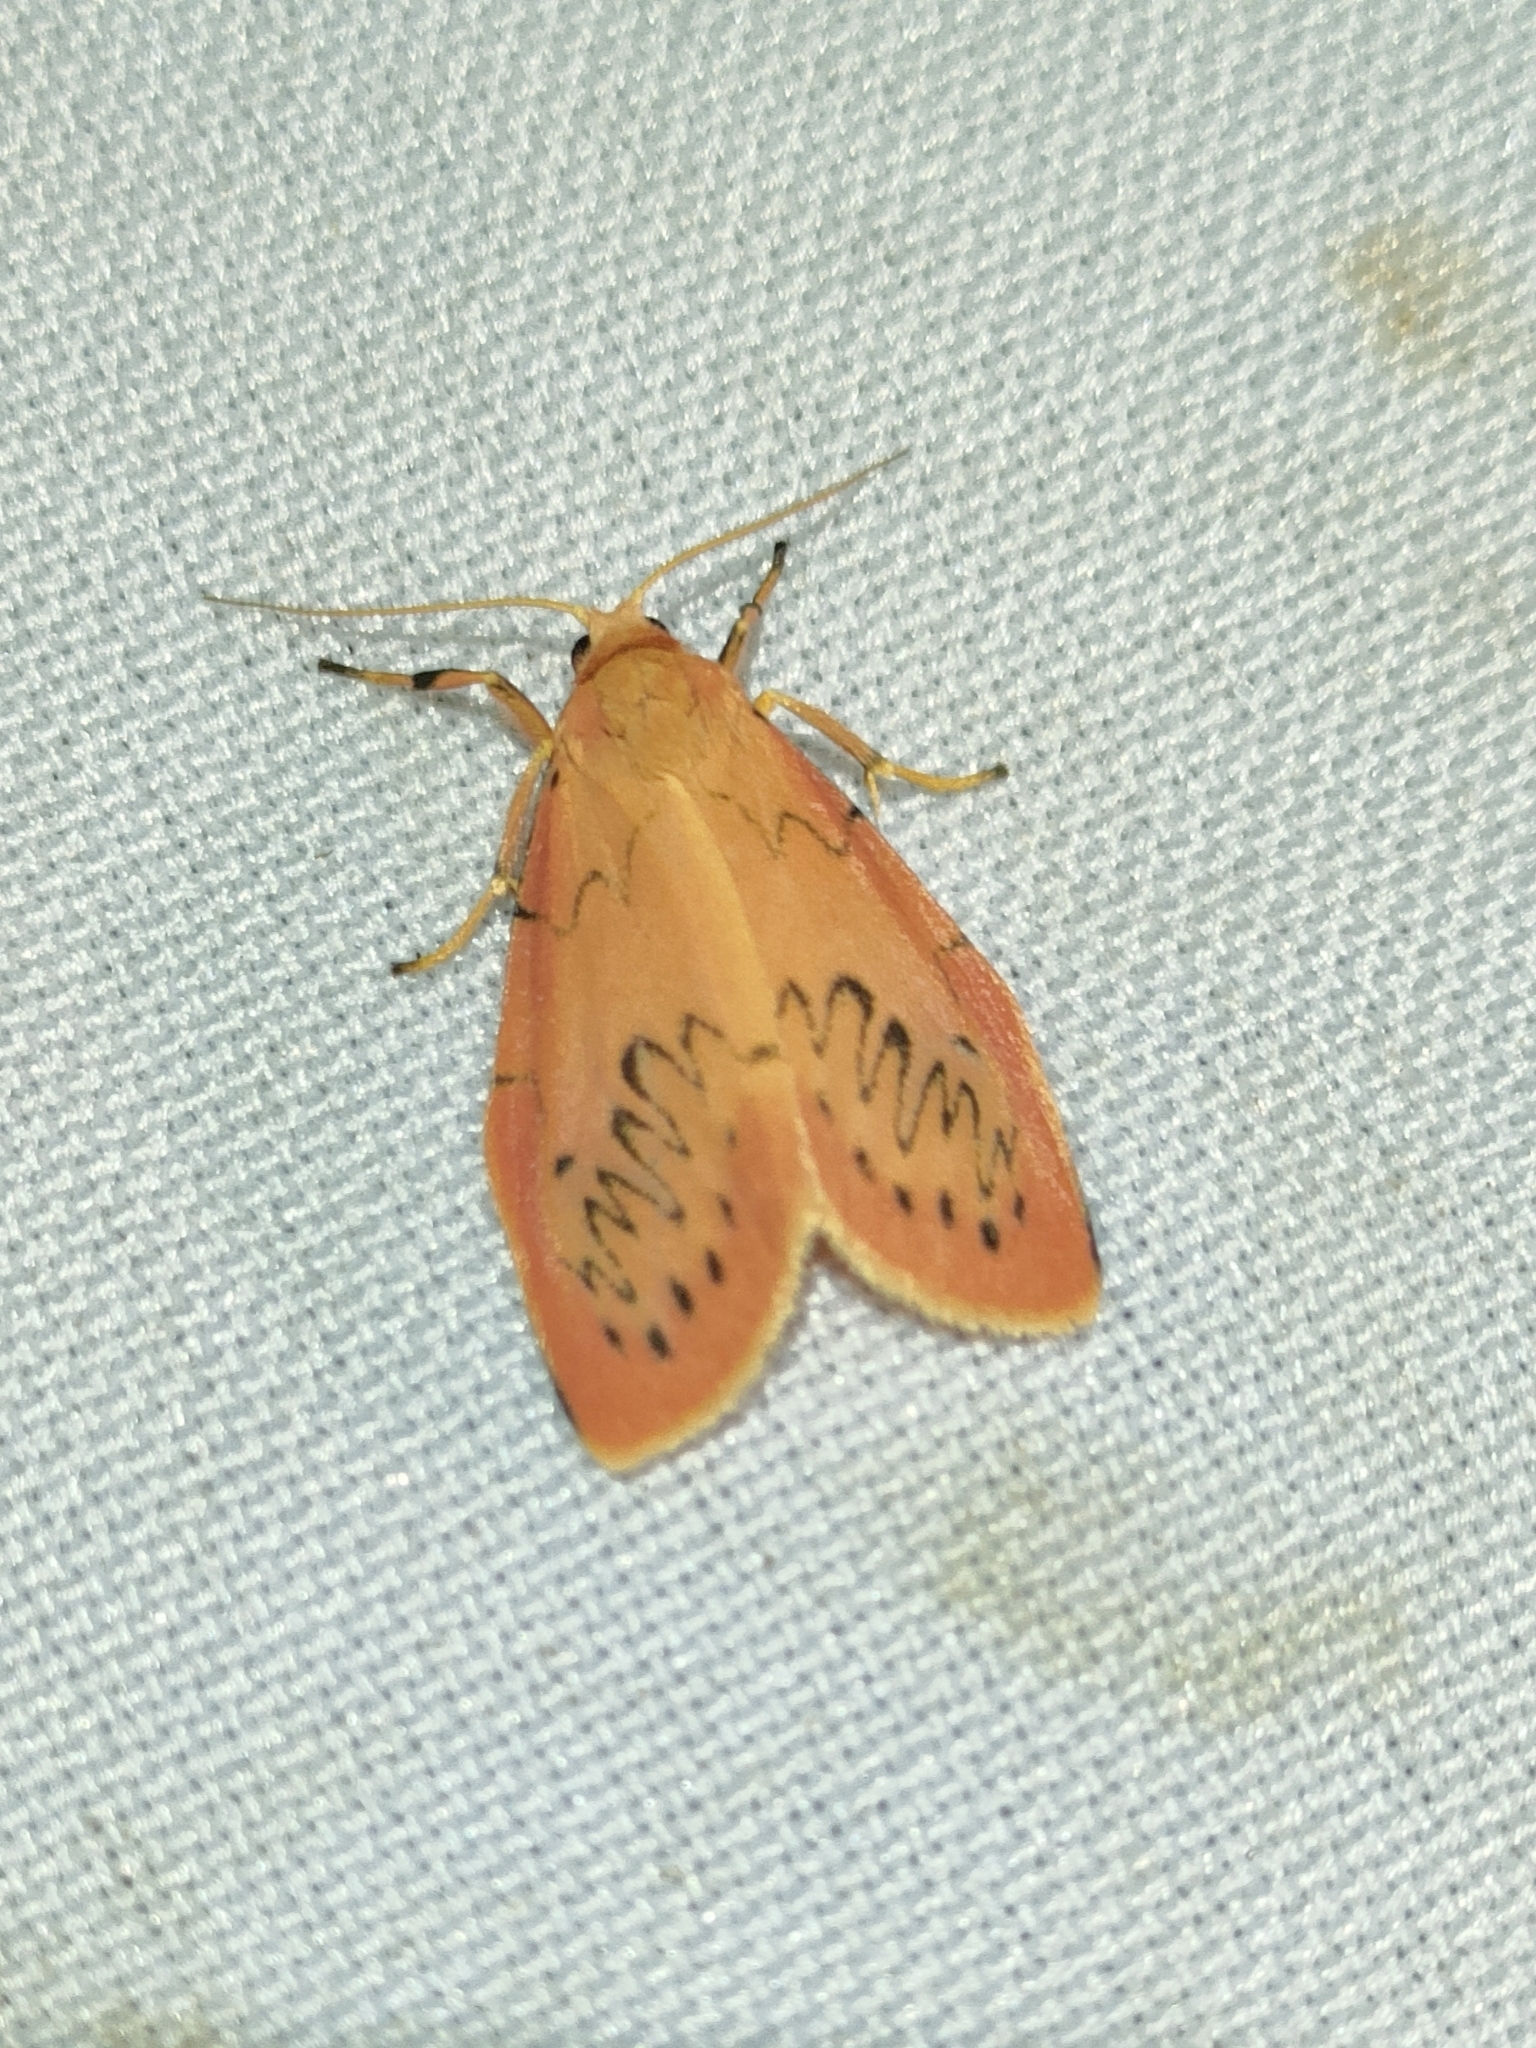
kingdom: Animalia
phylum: Arthropoda
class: Insecta
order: Lepidoptera
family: Erebidae
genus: Miltochrista
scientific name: Miltochrista miniata
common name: Rosy footman
